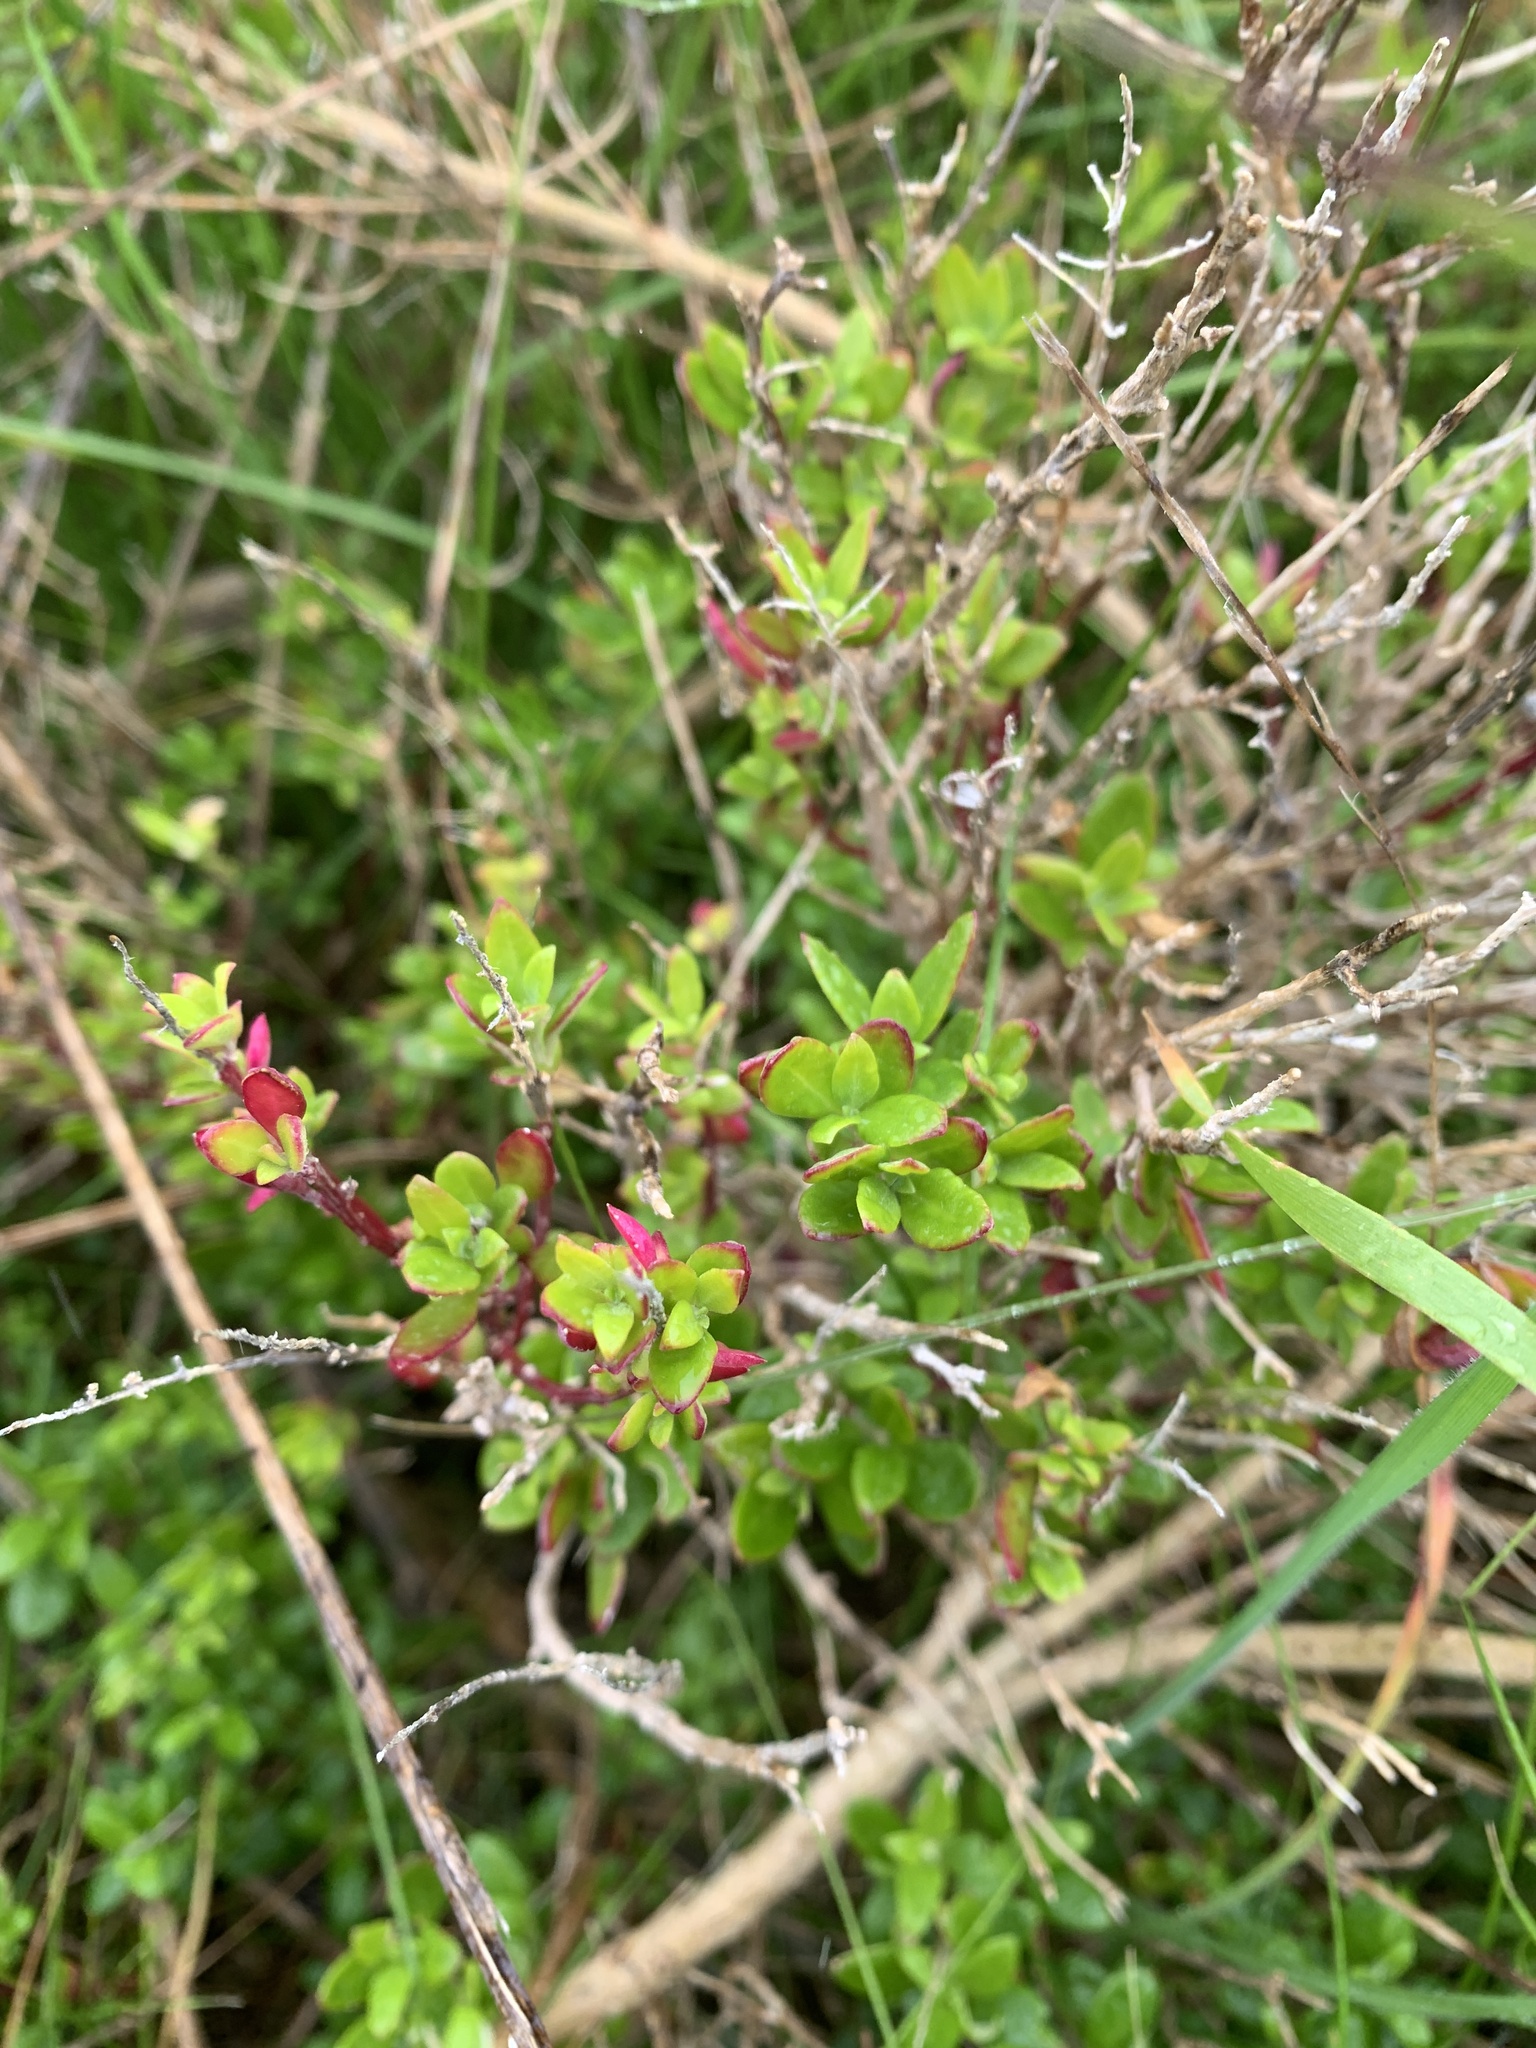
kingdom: Plantae
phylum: Tracheophyta
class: Magnoliopsida
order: Caryophyllales
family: Amaranthaceae
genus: Chenopodium
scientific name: Chenopodium candolleanum
